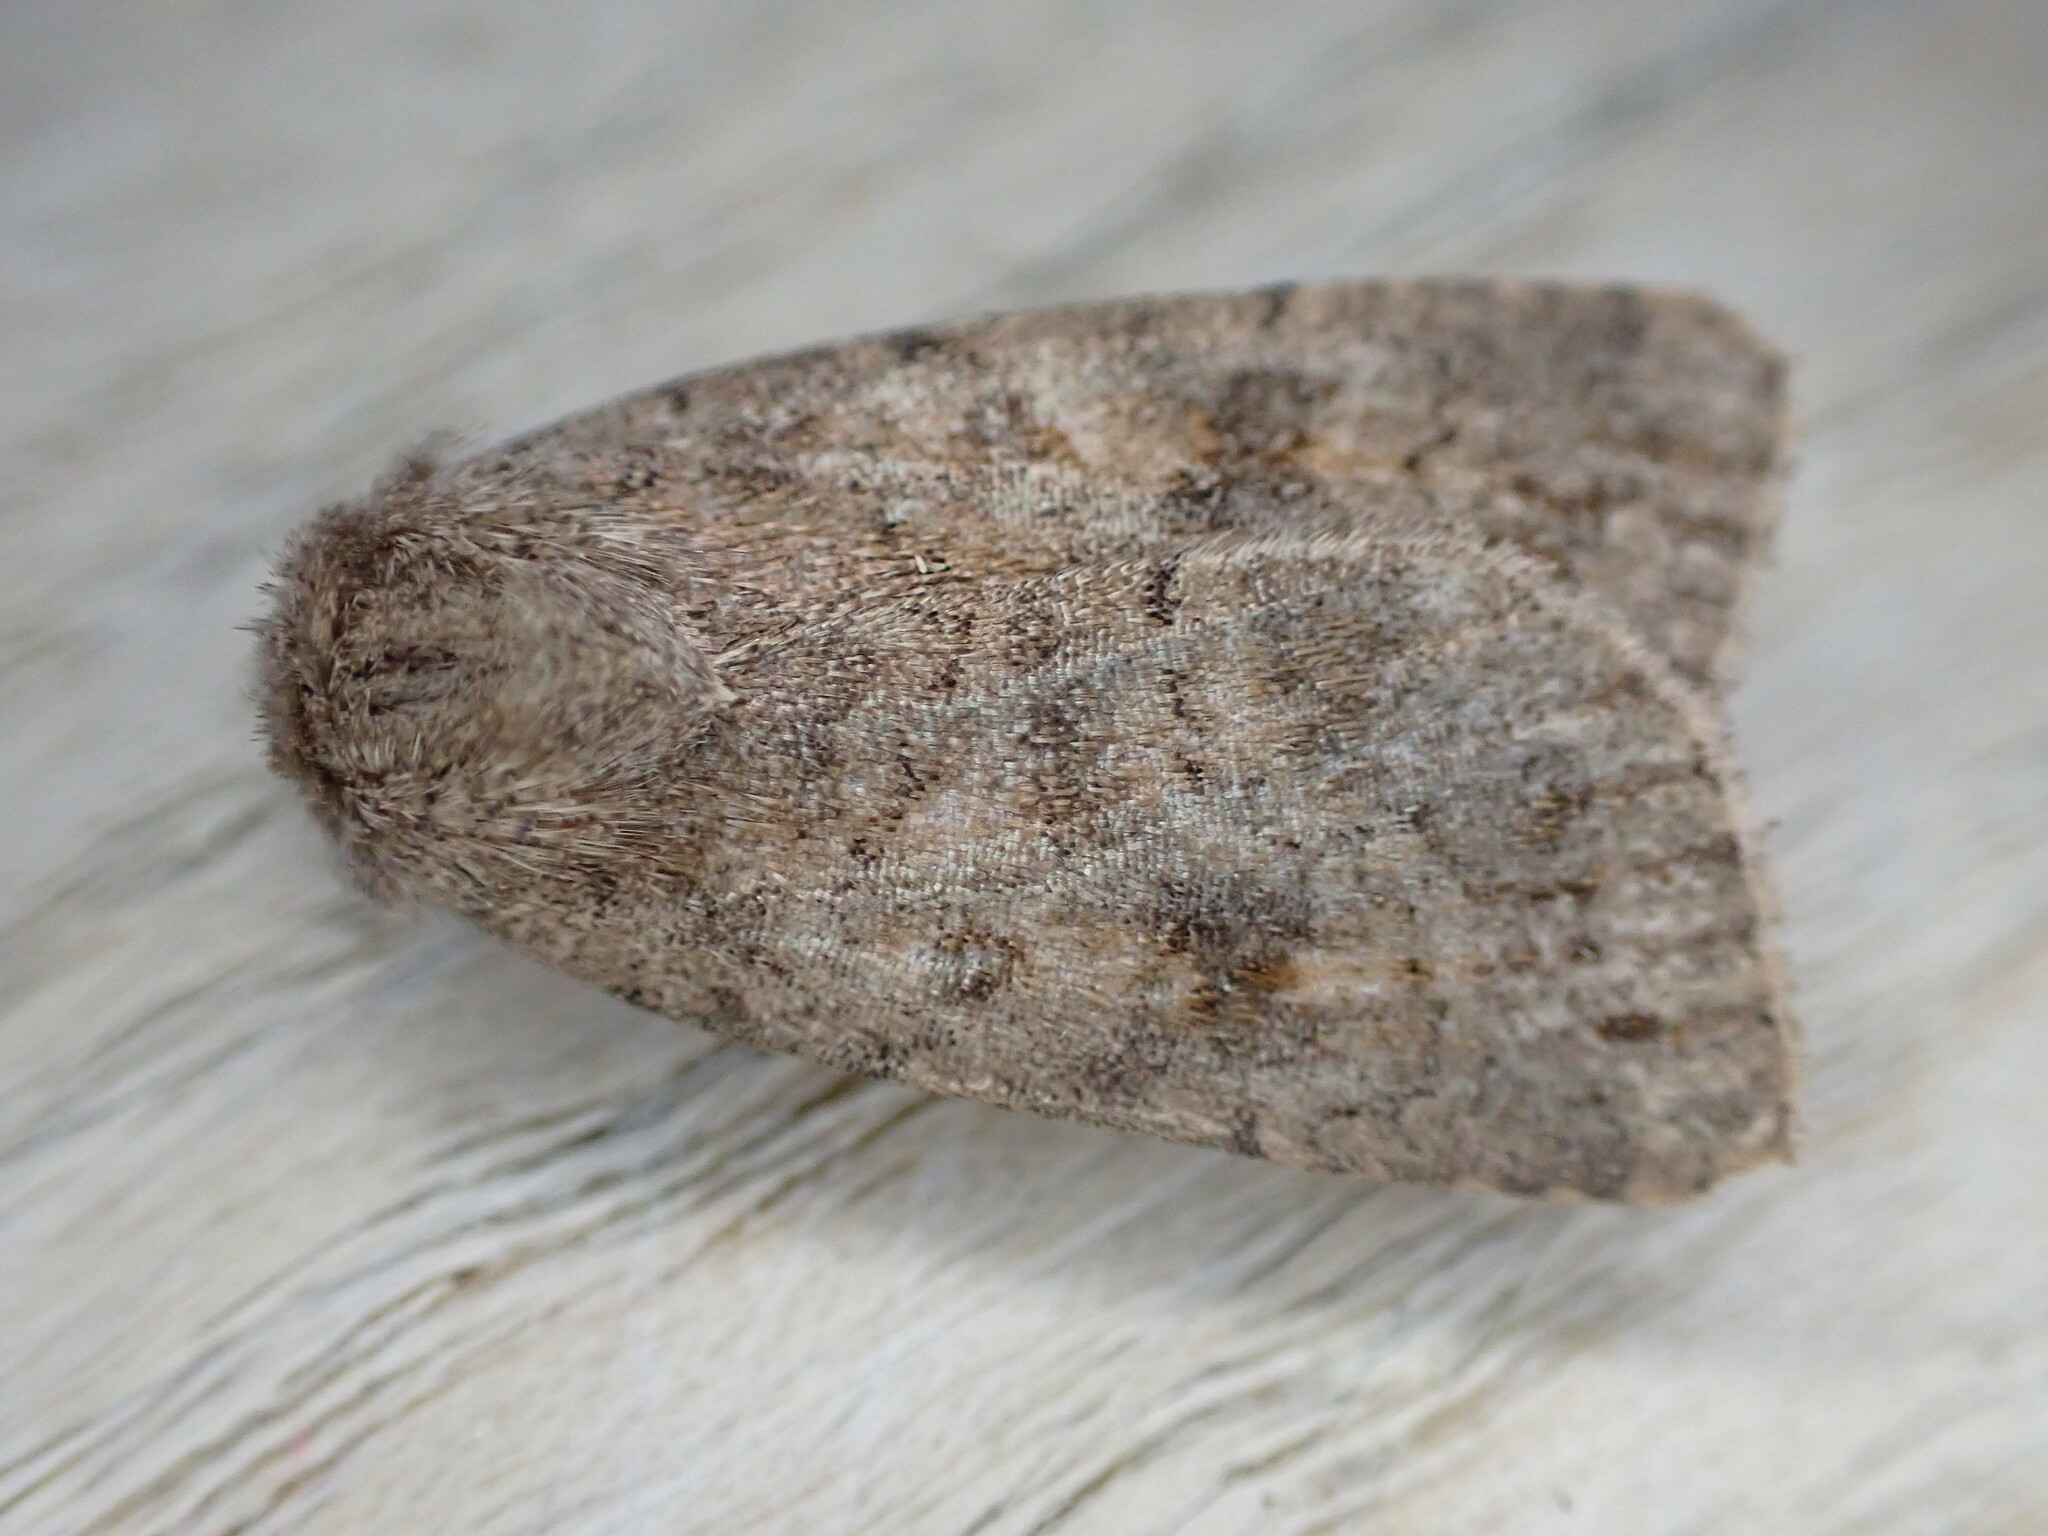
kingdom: Animalia
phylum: Arthropoda
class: Insecta
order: Lepidoptera
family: Noctuidae
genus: Caradrina
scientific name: Caradrina morpheus
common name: Mottled rustic
